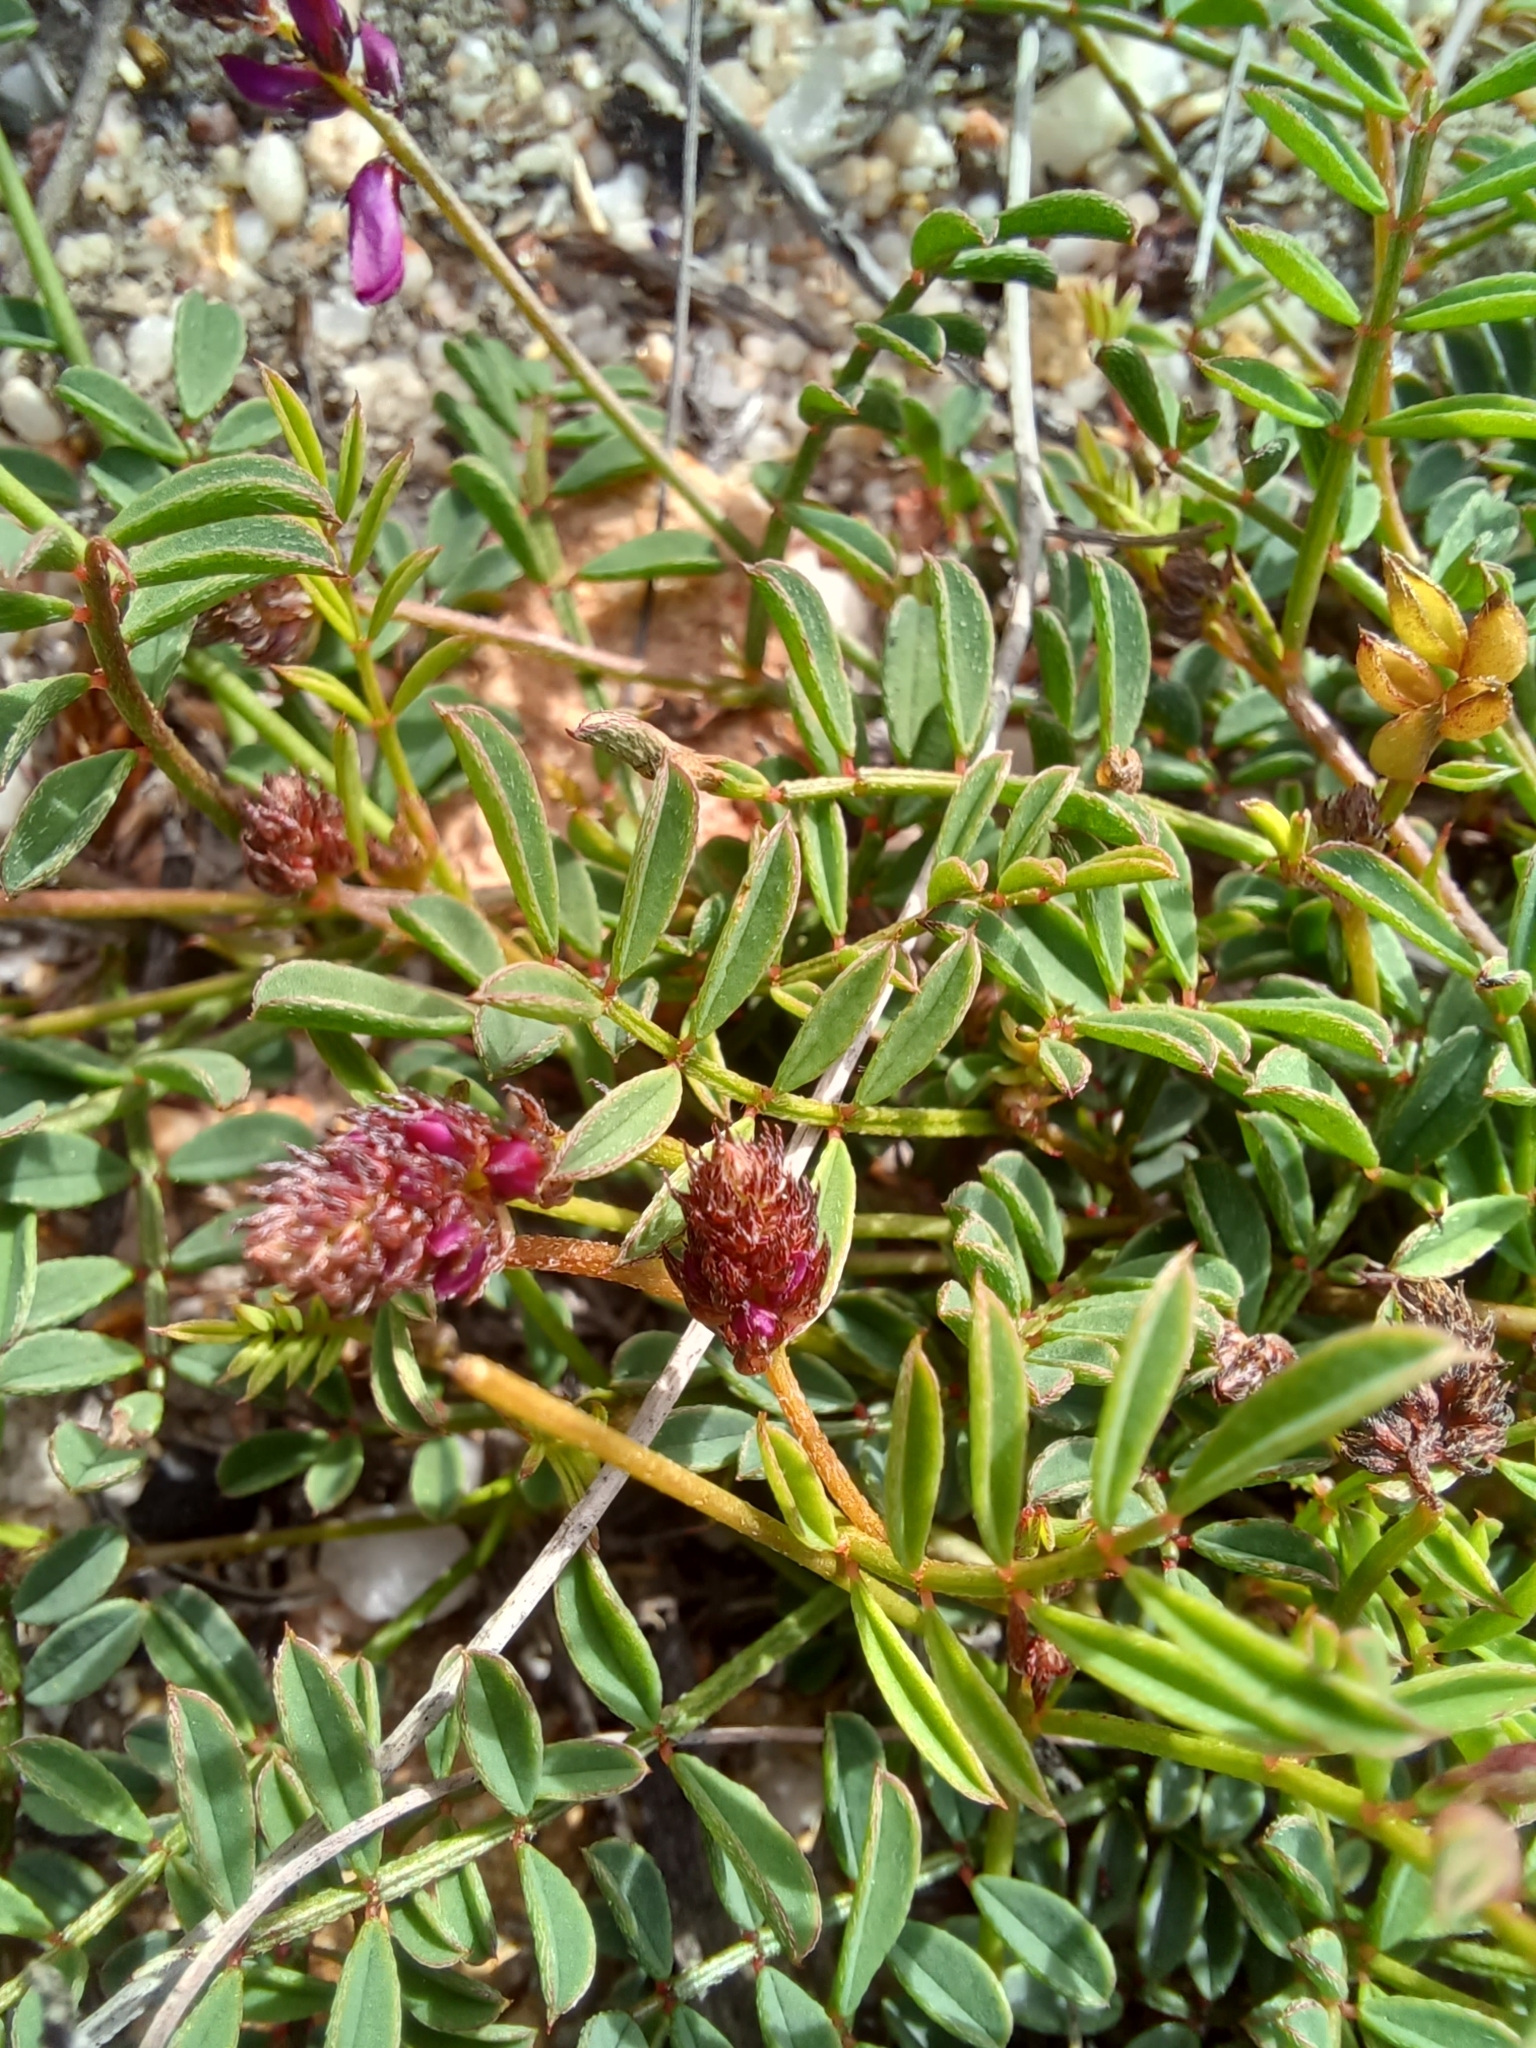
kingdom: Plantae
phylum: Tracheophyta
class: Magnoliopsida
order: Fabales
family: Fabaceae
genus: Indigofera
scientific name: Indigofera capillaris
